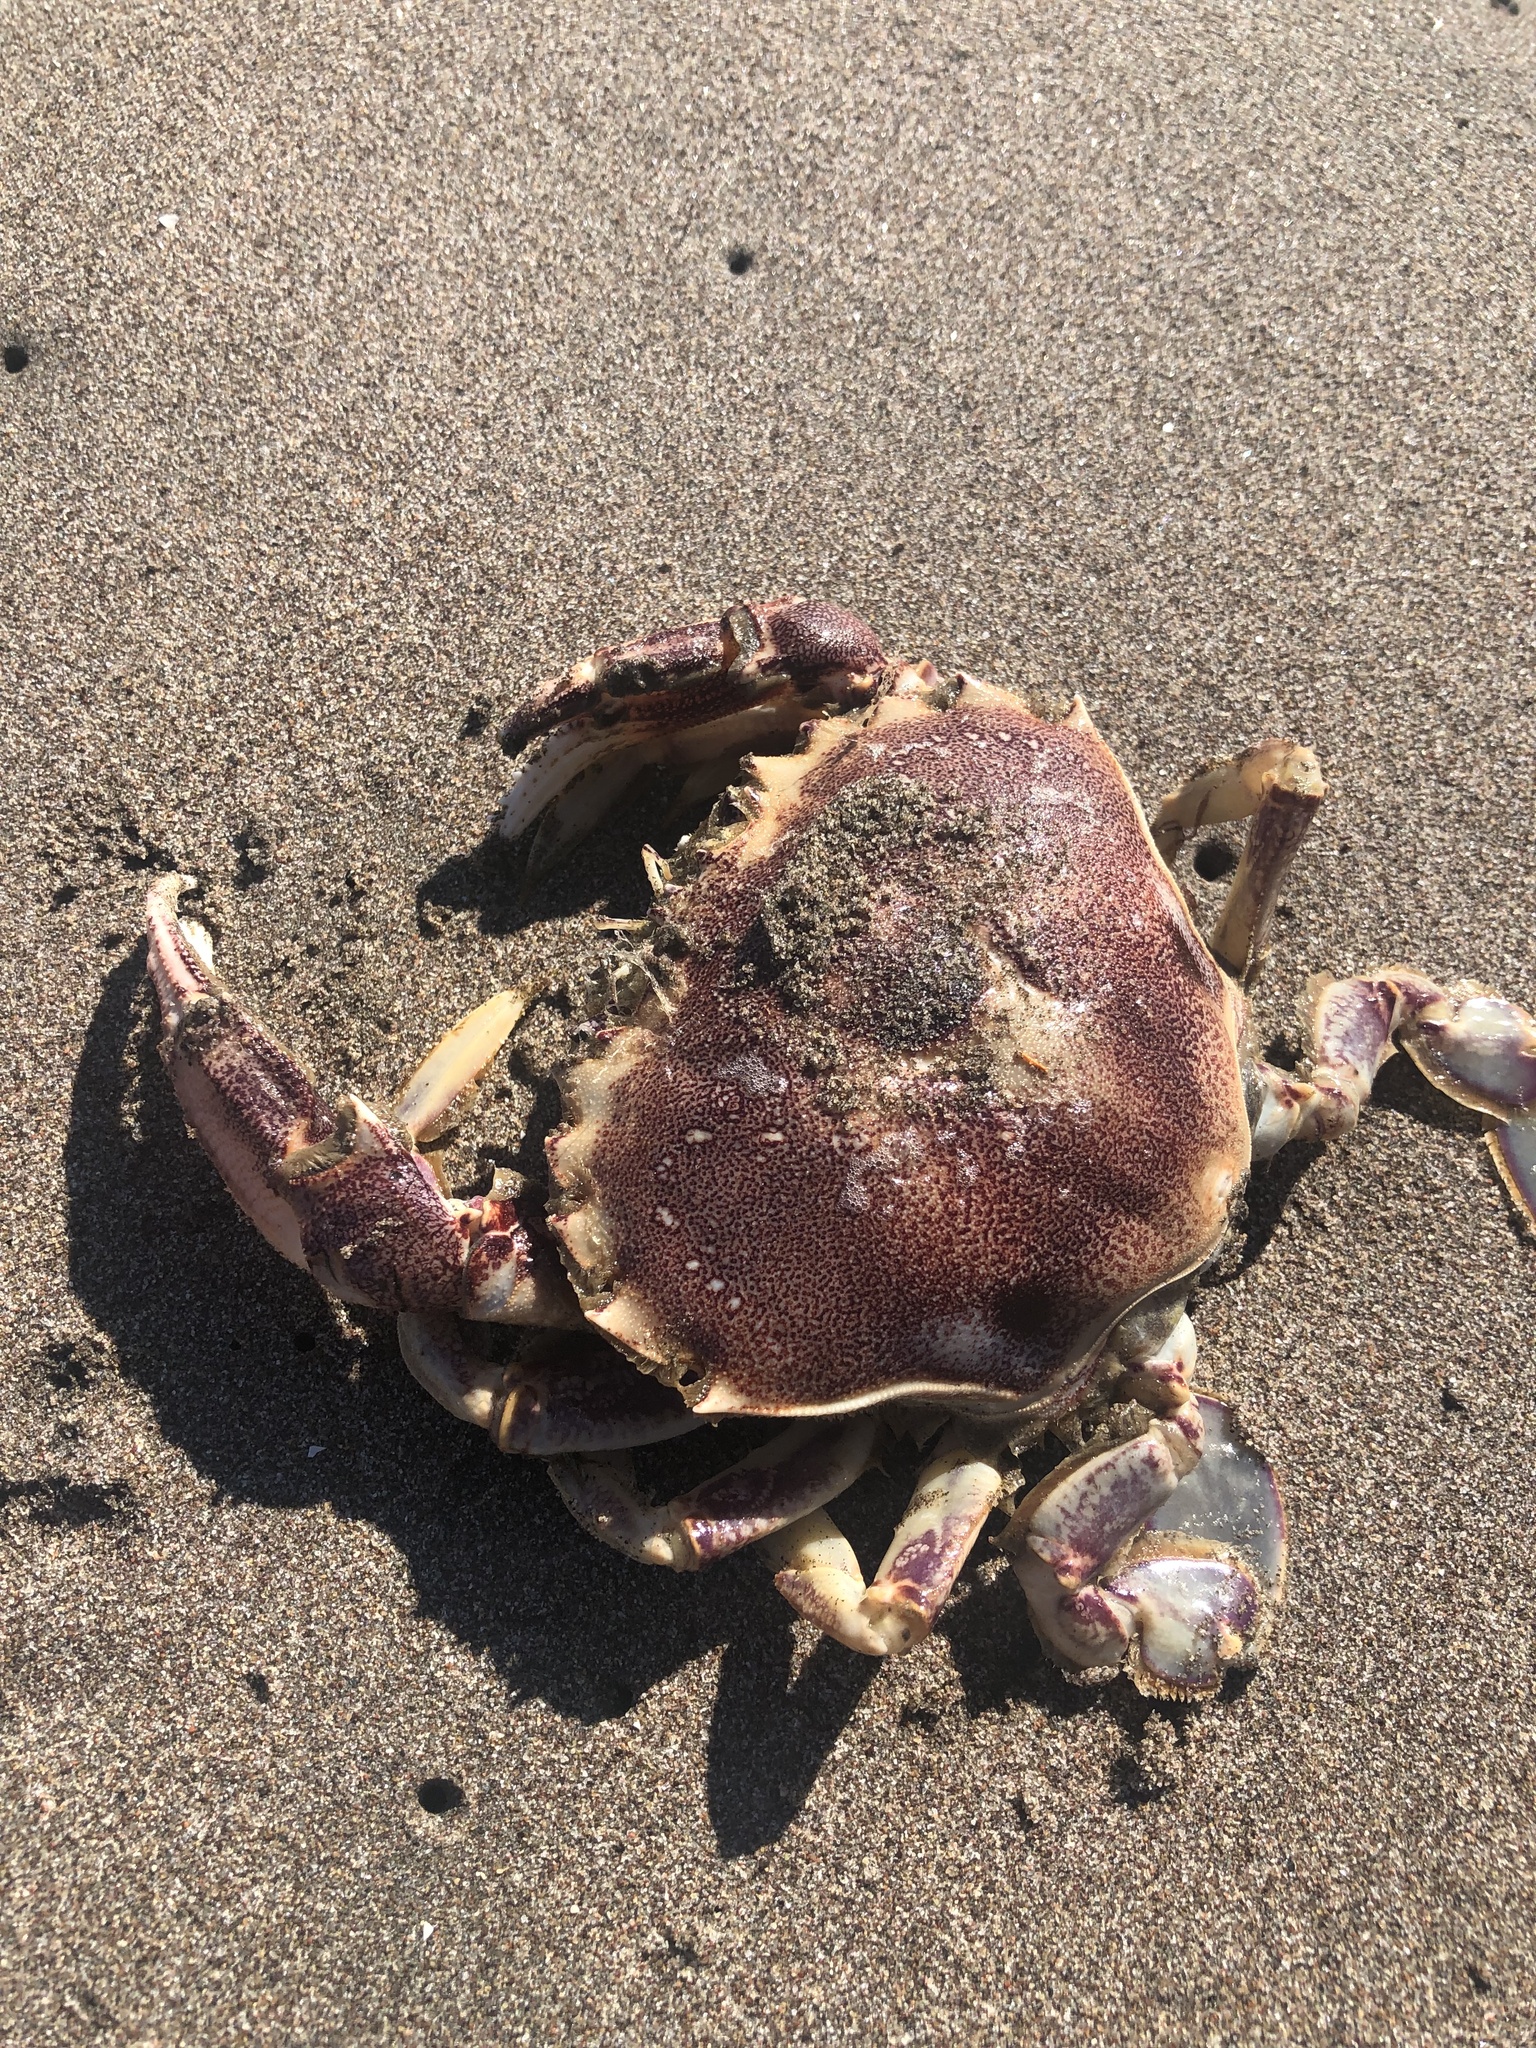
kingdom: Animalia
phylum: Arthropoda
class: Malacostraca
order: Decapoda
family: Ovalipidae
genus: Ovalipes
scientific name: Ovalipes trimaculatus
